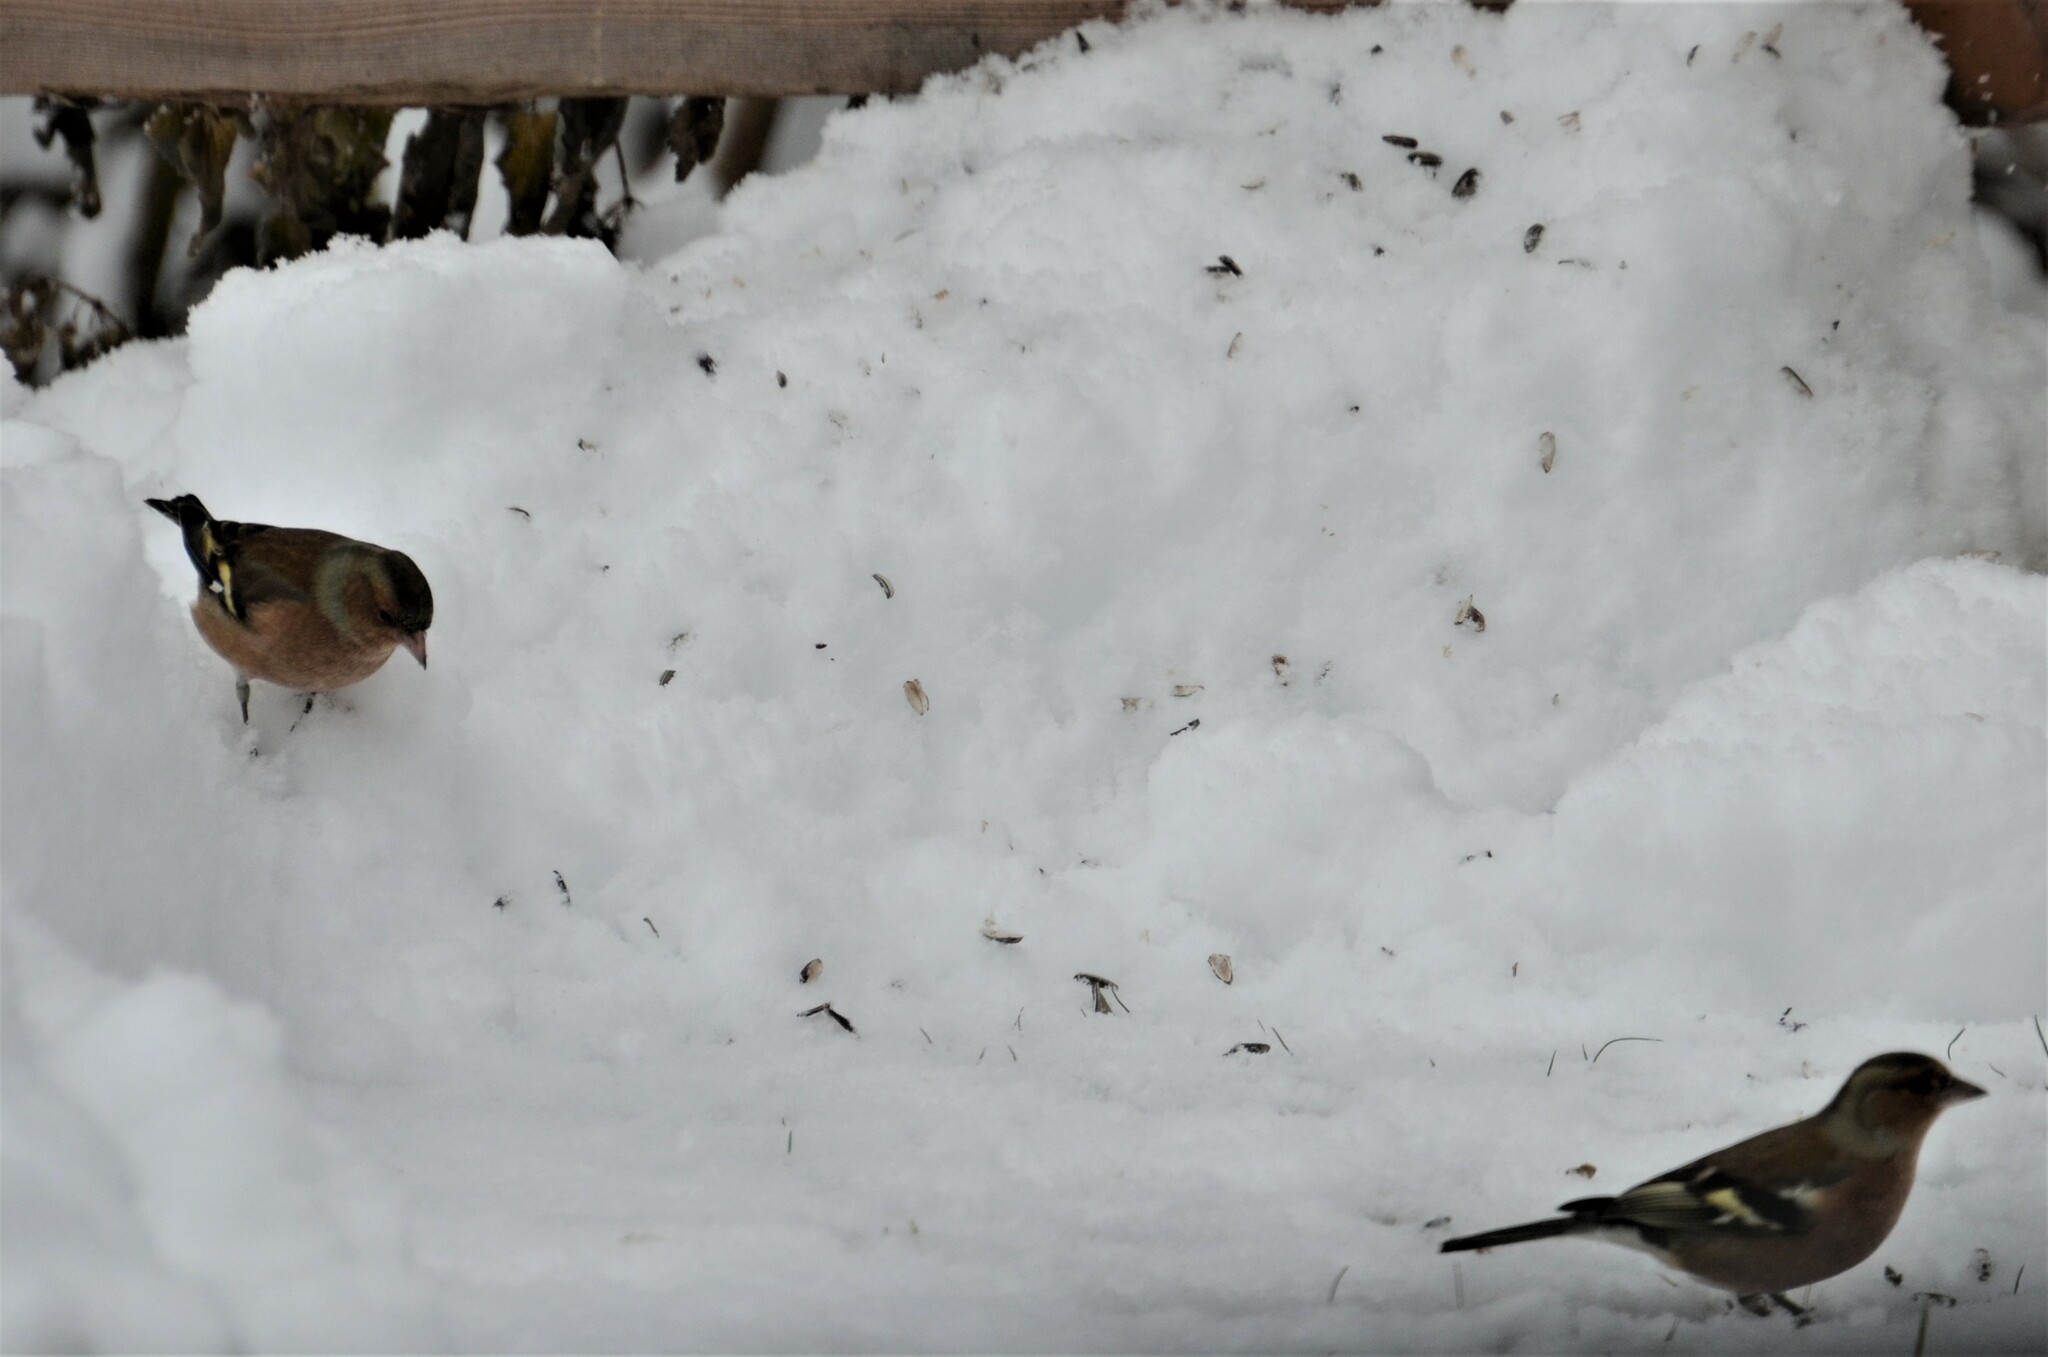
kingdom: Animalia
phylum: Chordata
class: Aves
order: Passeriformes
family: Fringillidae
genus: Fringilla
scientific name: Fringilla coelebs
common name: Common chaffinch
